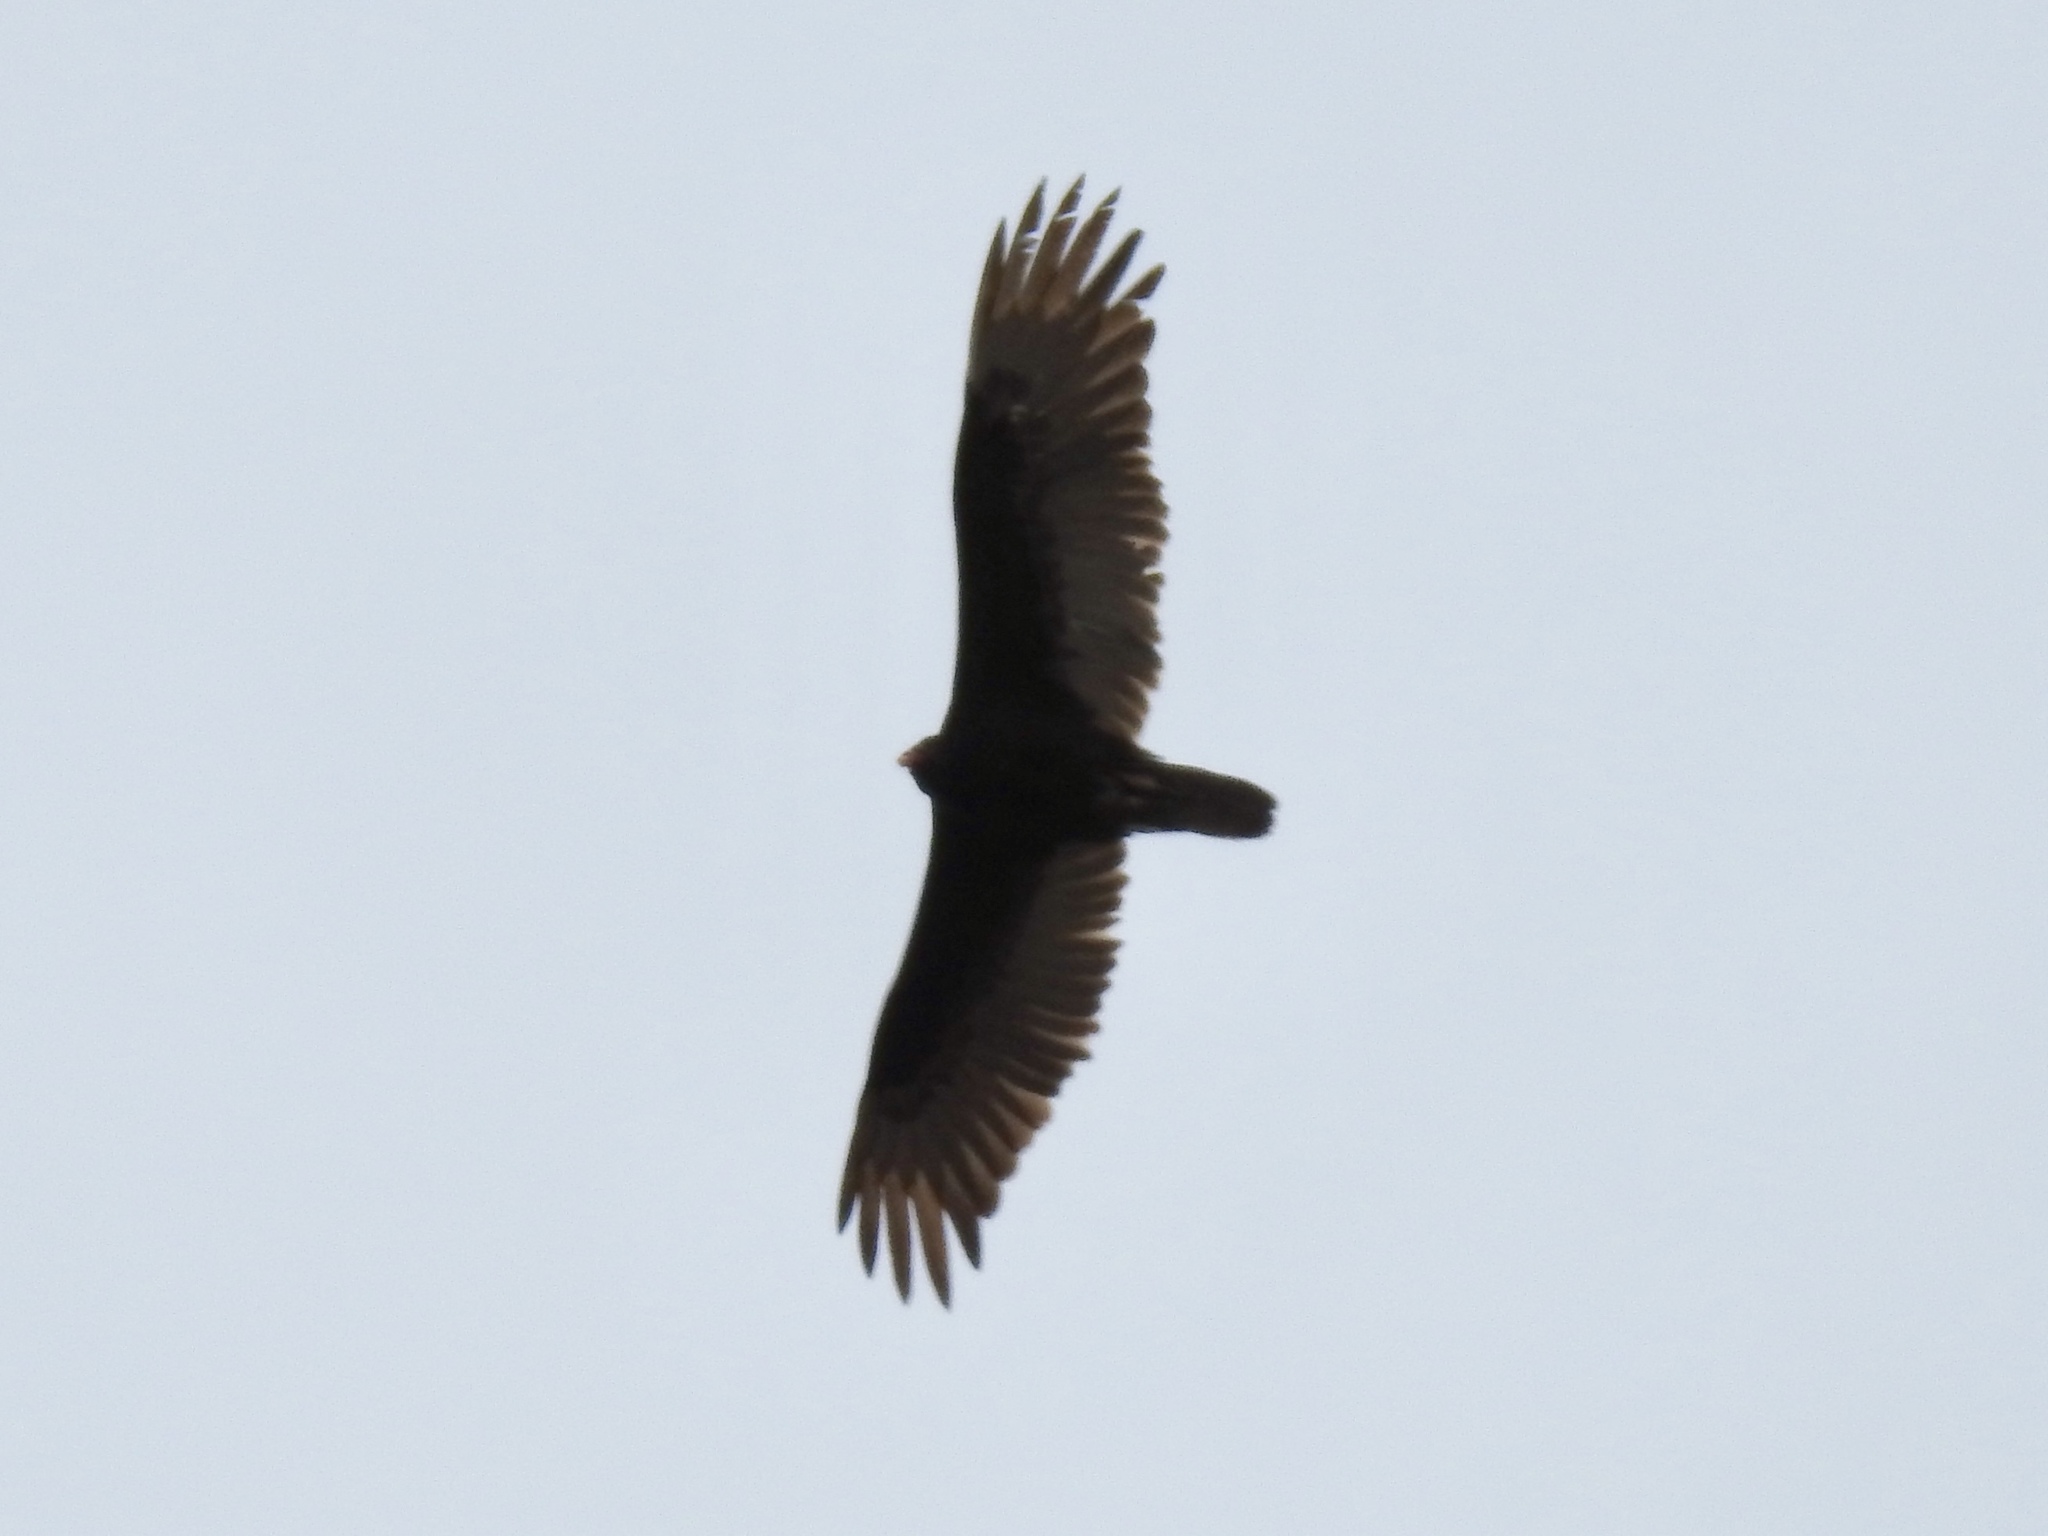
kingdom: Animalia
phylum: Chordata
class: Aves
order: Accipitriformes
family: Cathartidae
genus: Cathartes
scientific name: Cathartes aura
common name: Turkey vulture
